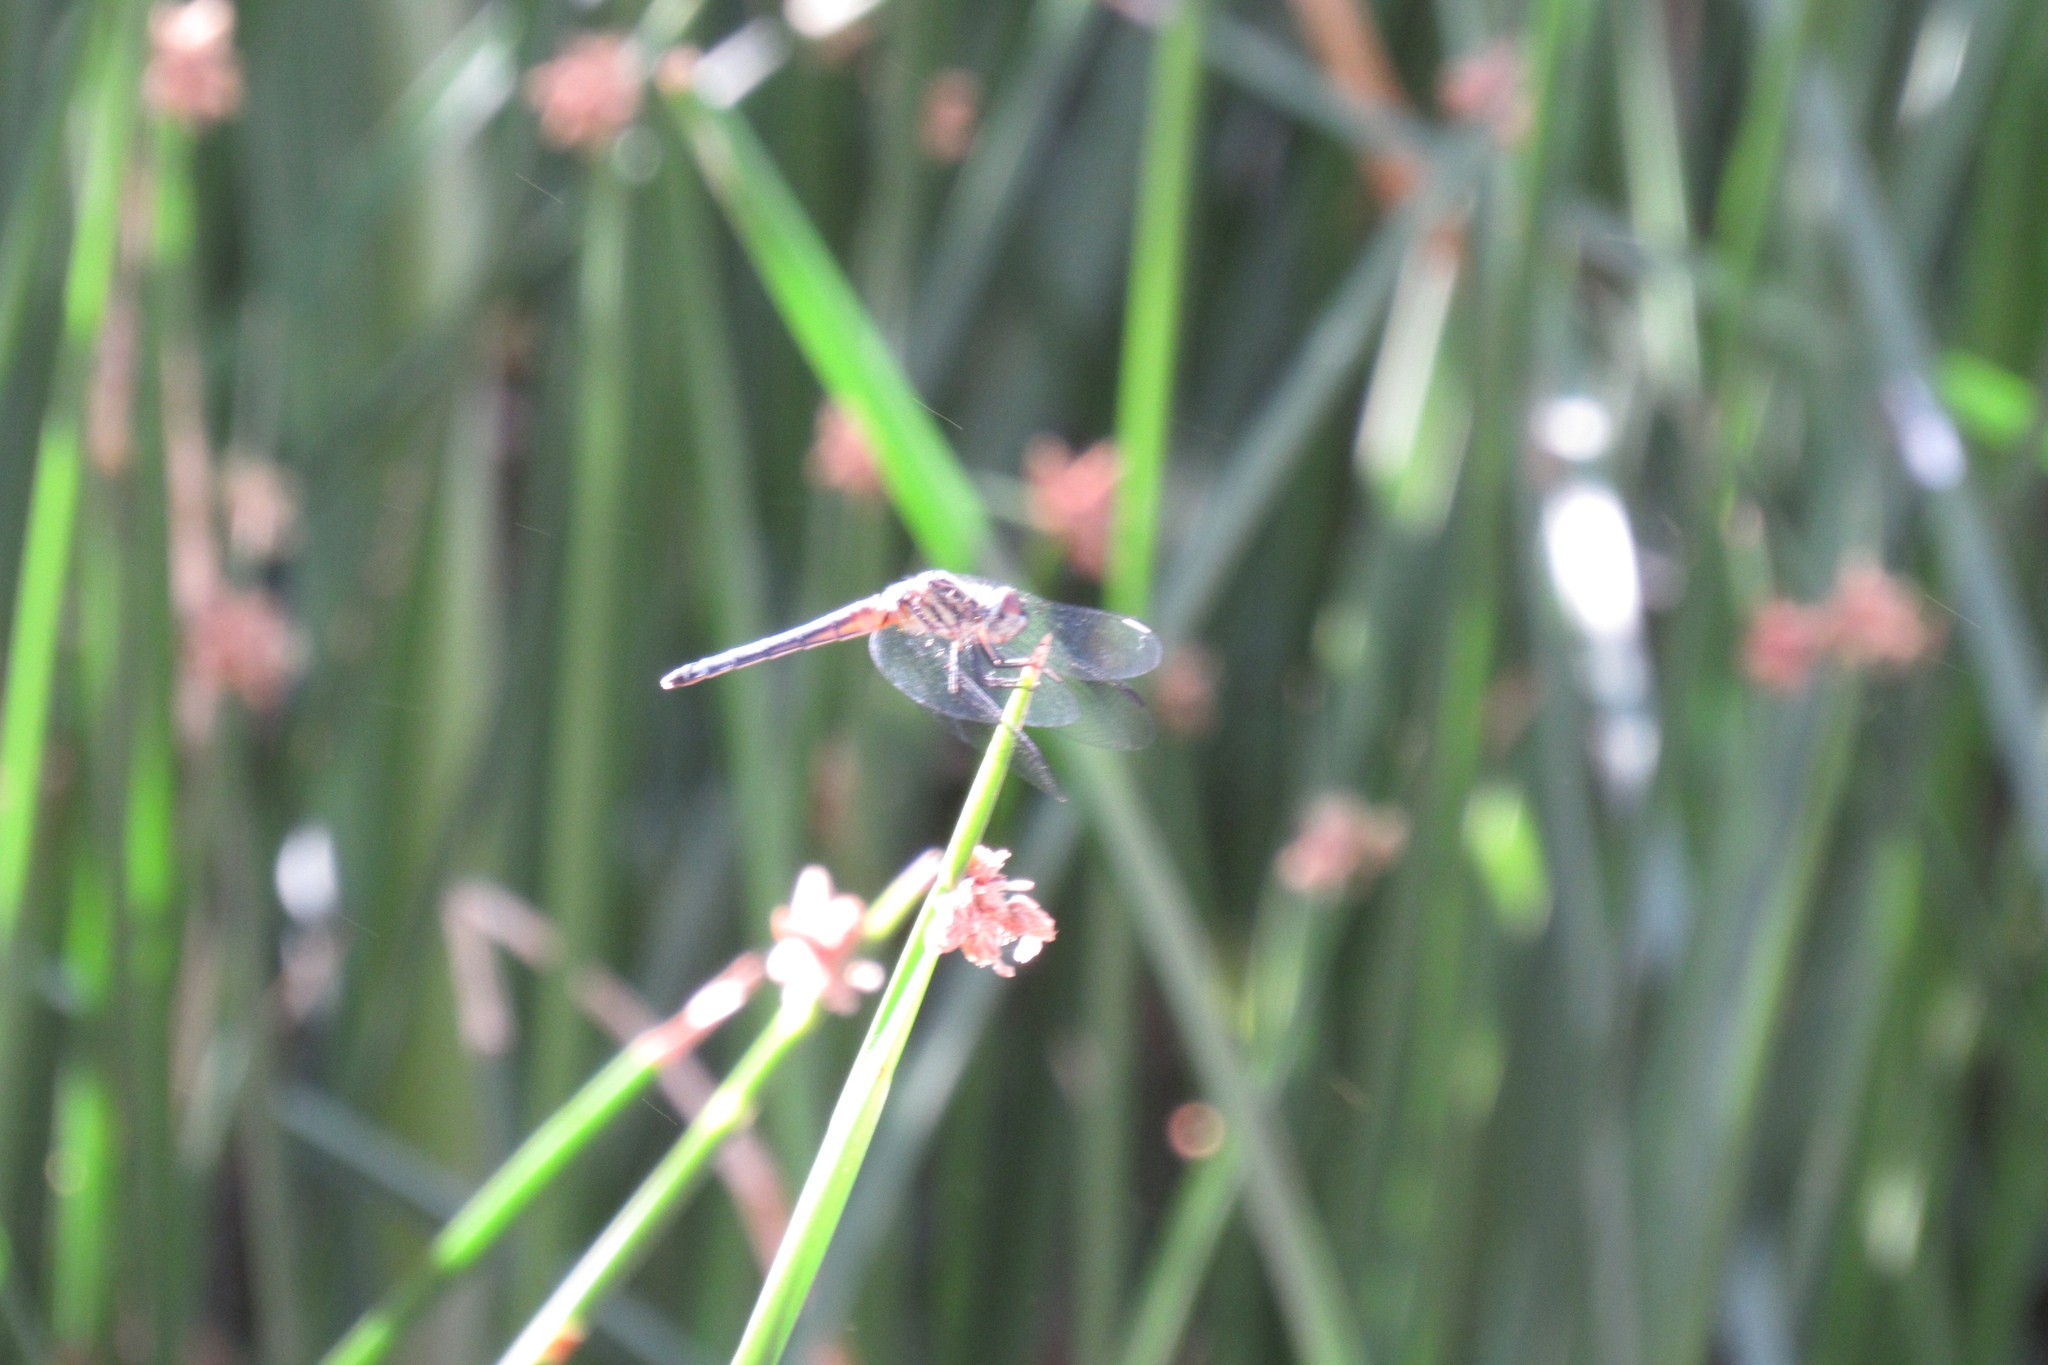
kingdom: Animalia
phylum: Arthropoda
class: Insecta
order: Odonata
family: Libellulidae
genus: Pachydiplax
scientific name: Pachydiplax longipennis
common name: Blue dasher
